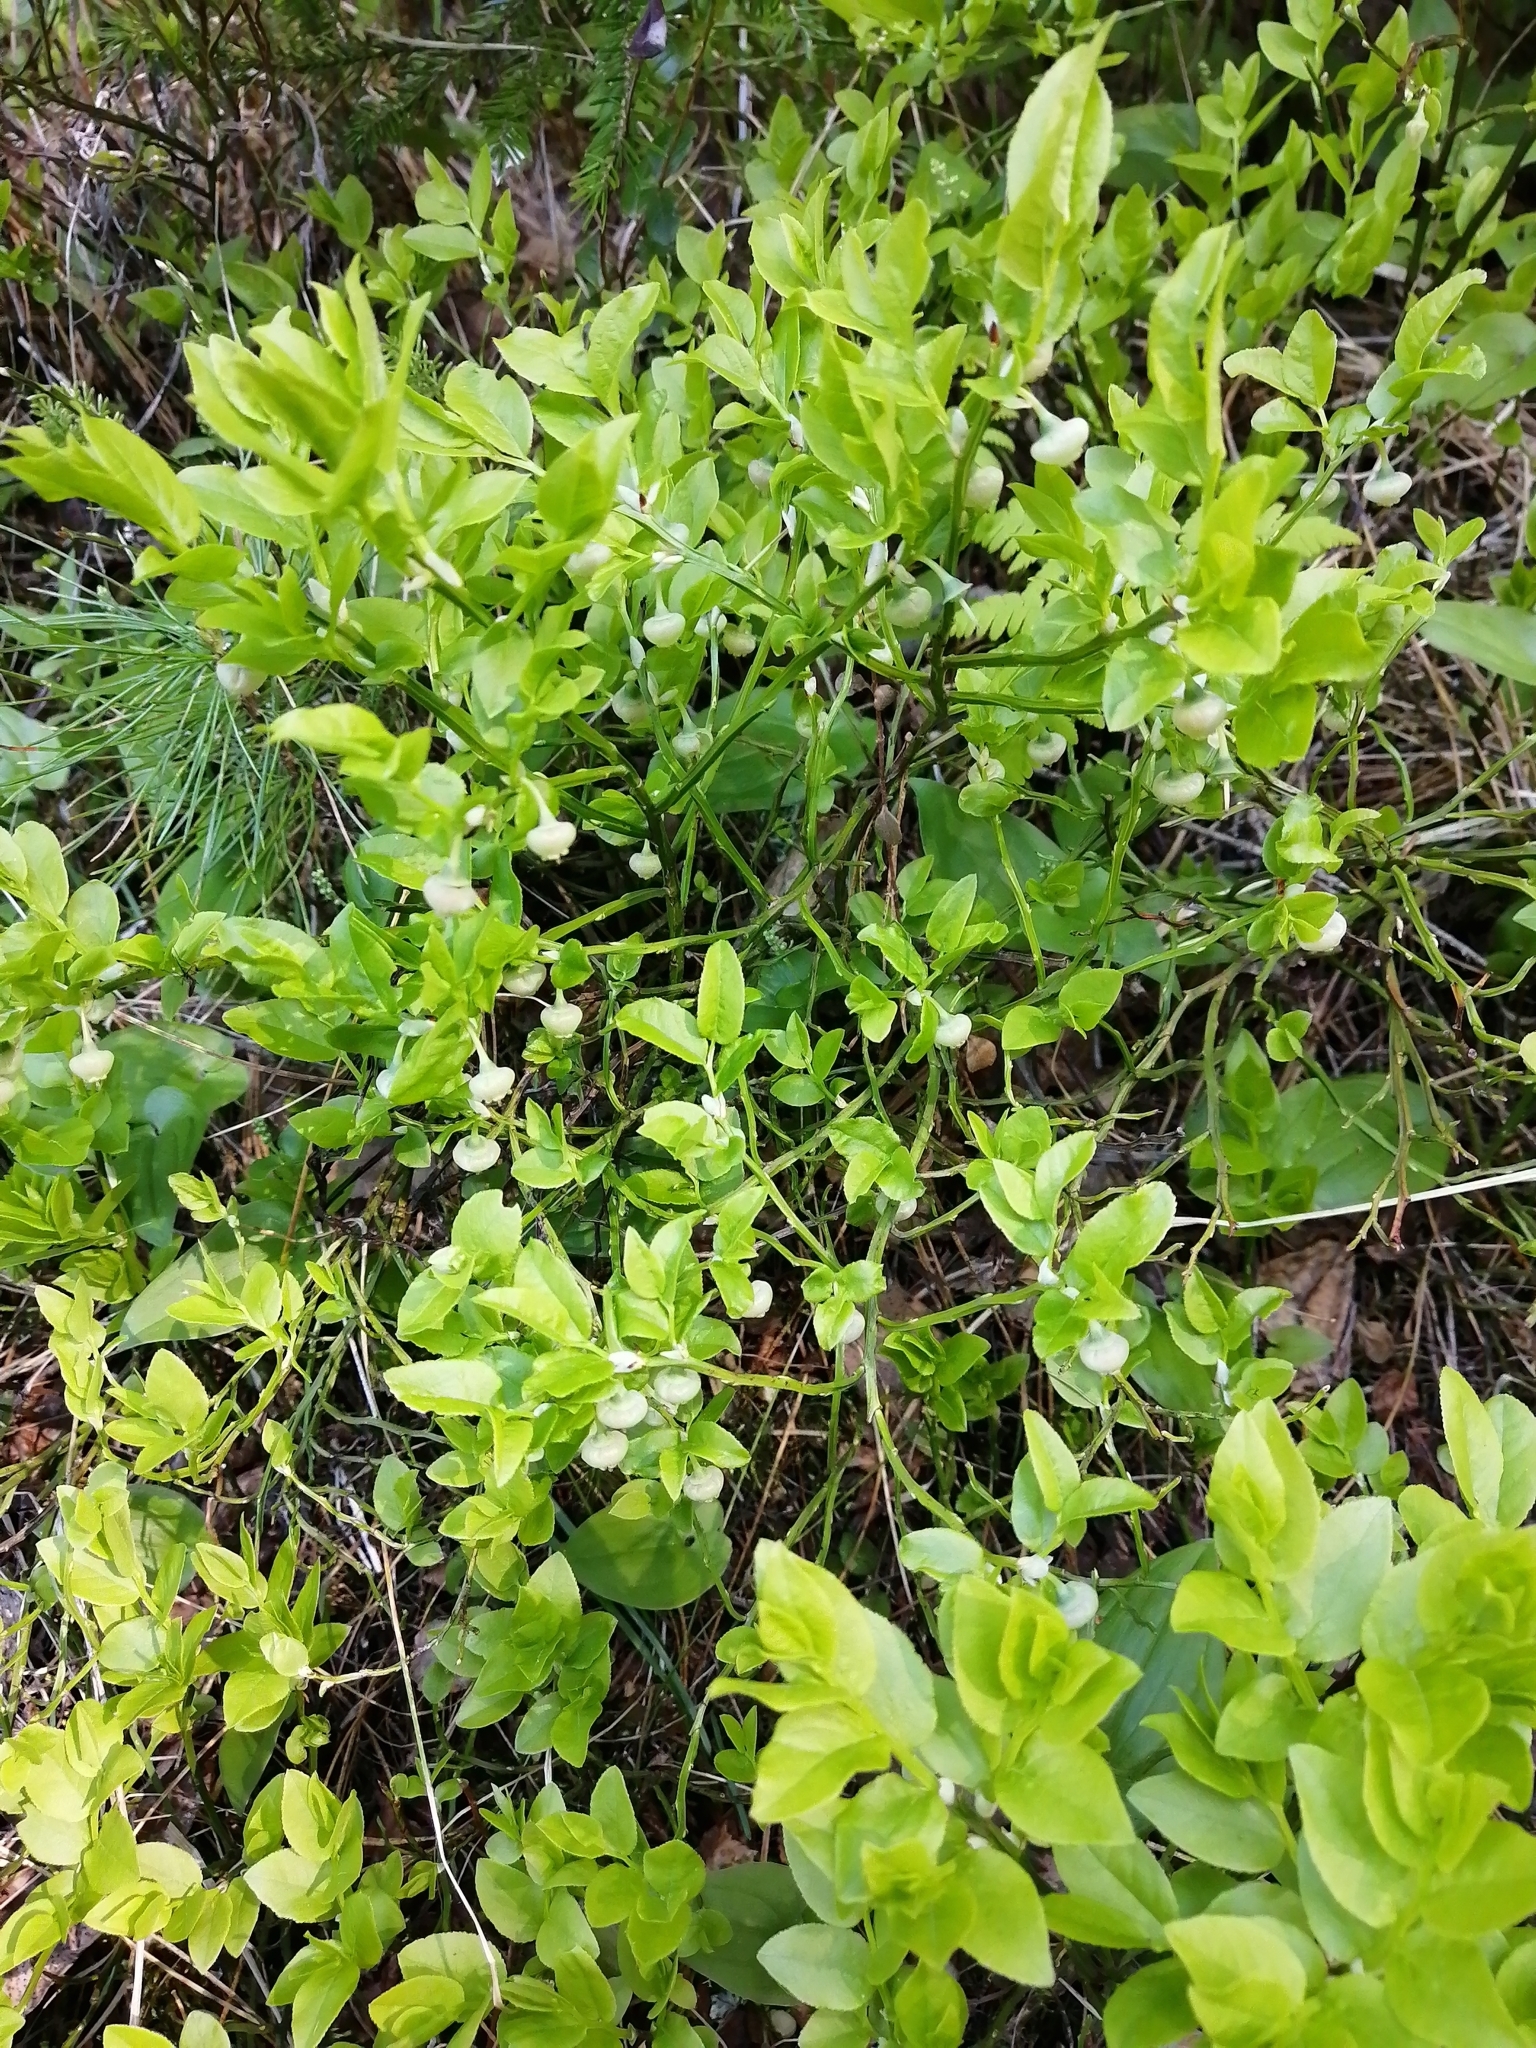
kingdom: Plantae
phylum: Tracheophyta
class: Magnoliopsida
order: Ericales
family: Ericaceae
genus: Vaccinium
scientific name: Vaccinium myrtillus
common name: Bilberry
